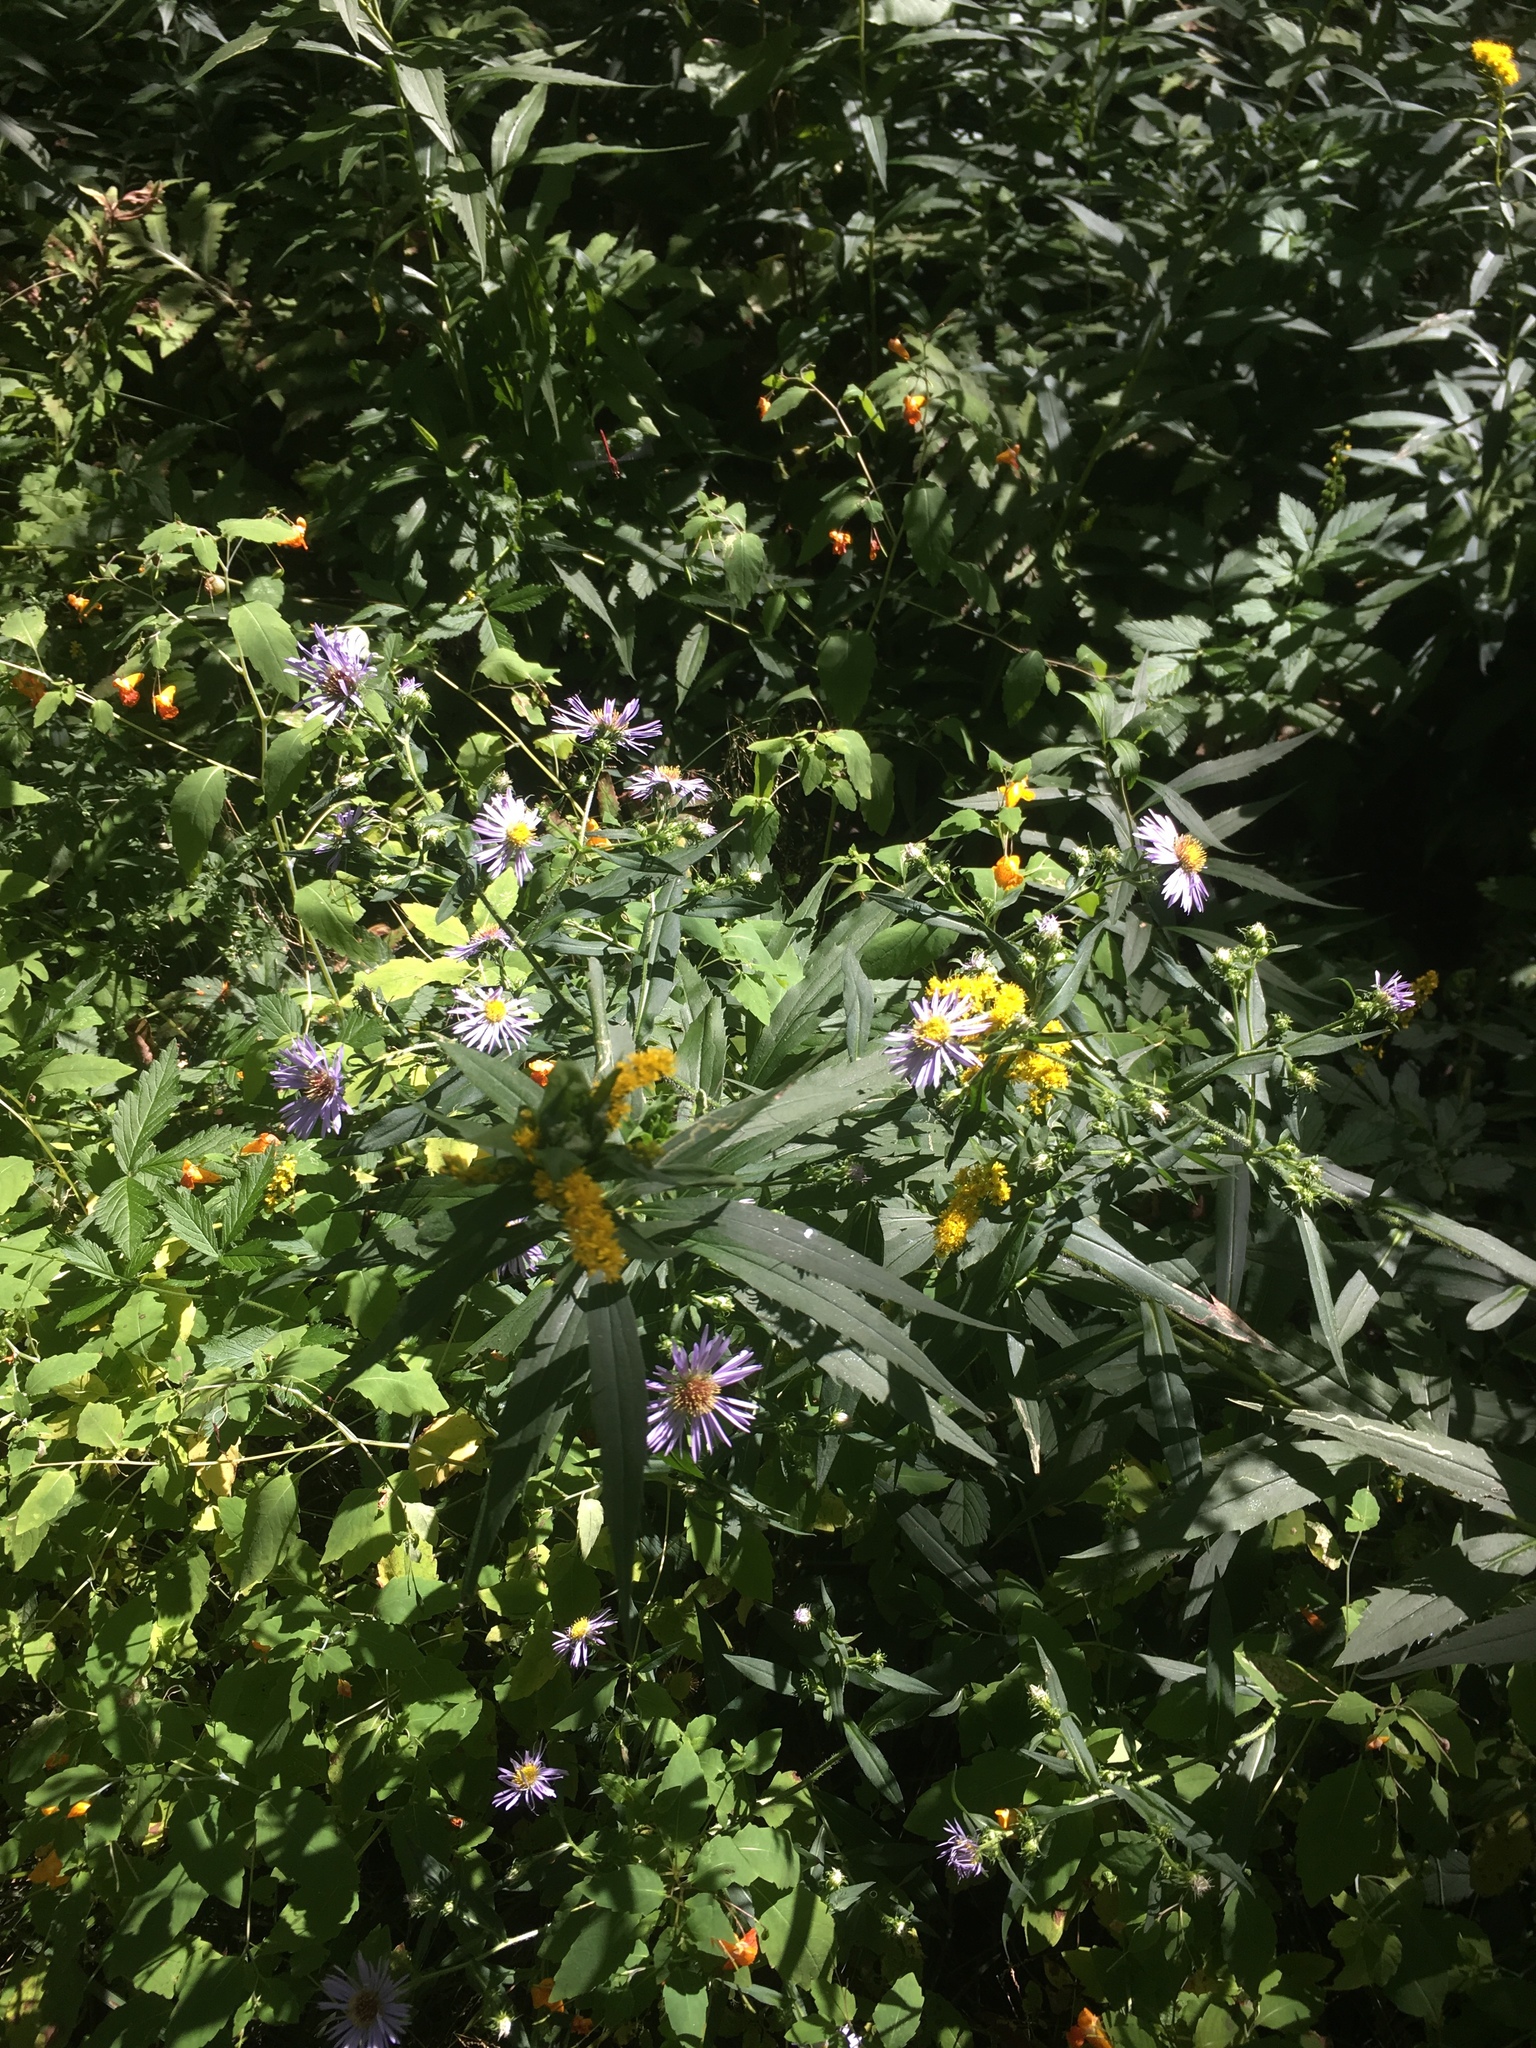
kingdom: Plantae
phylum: Tracheophyta
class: Magnoliopsida
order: Asterales
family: Asteraceae
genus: Symphyotrichum
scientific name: Symphyotrichum puniceum
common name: Bog aster
